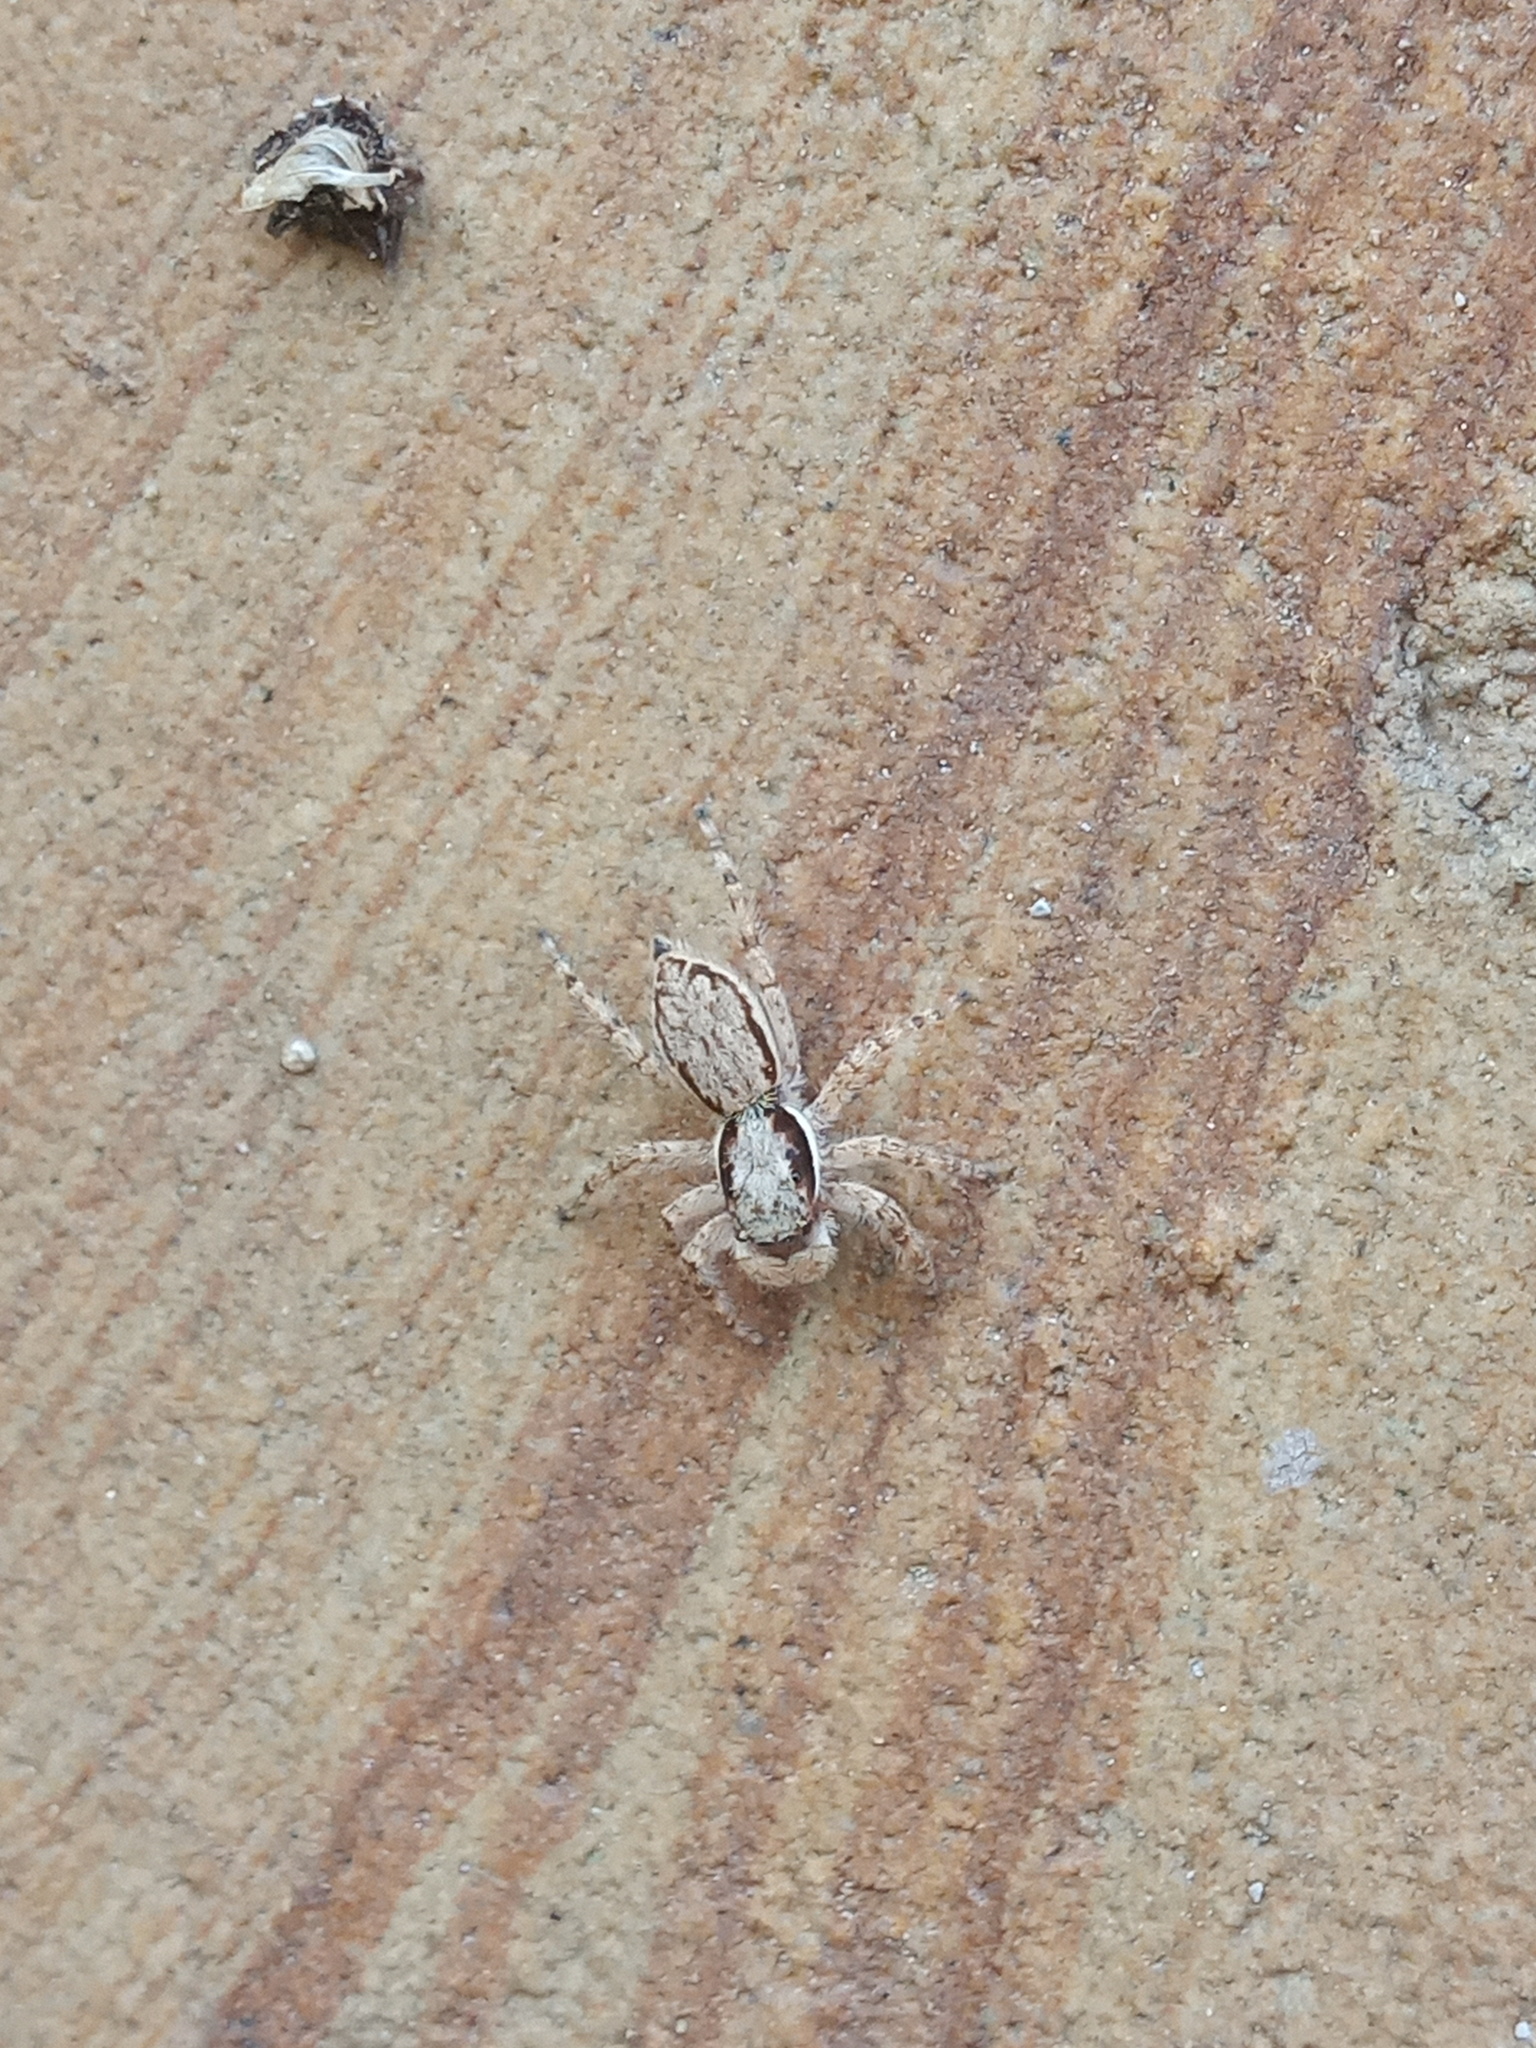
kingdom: Animalia
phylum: Arthropoda
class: Arachnida
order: Araneae
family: Salticidae
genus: Menemerus
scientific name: Menemerus bivittatus
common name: Gray wall jumper
